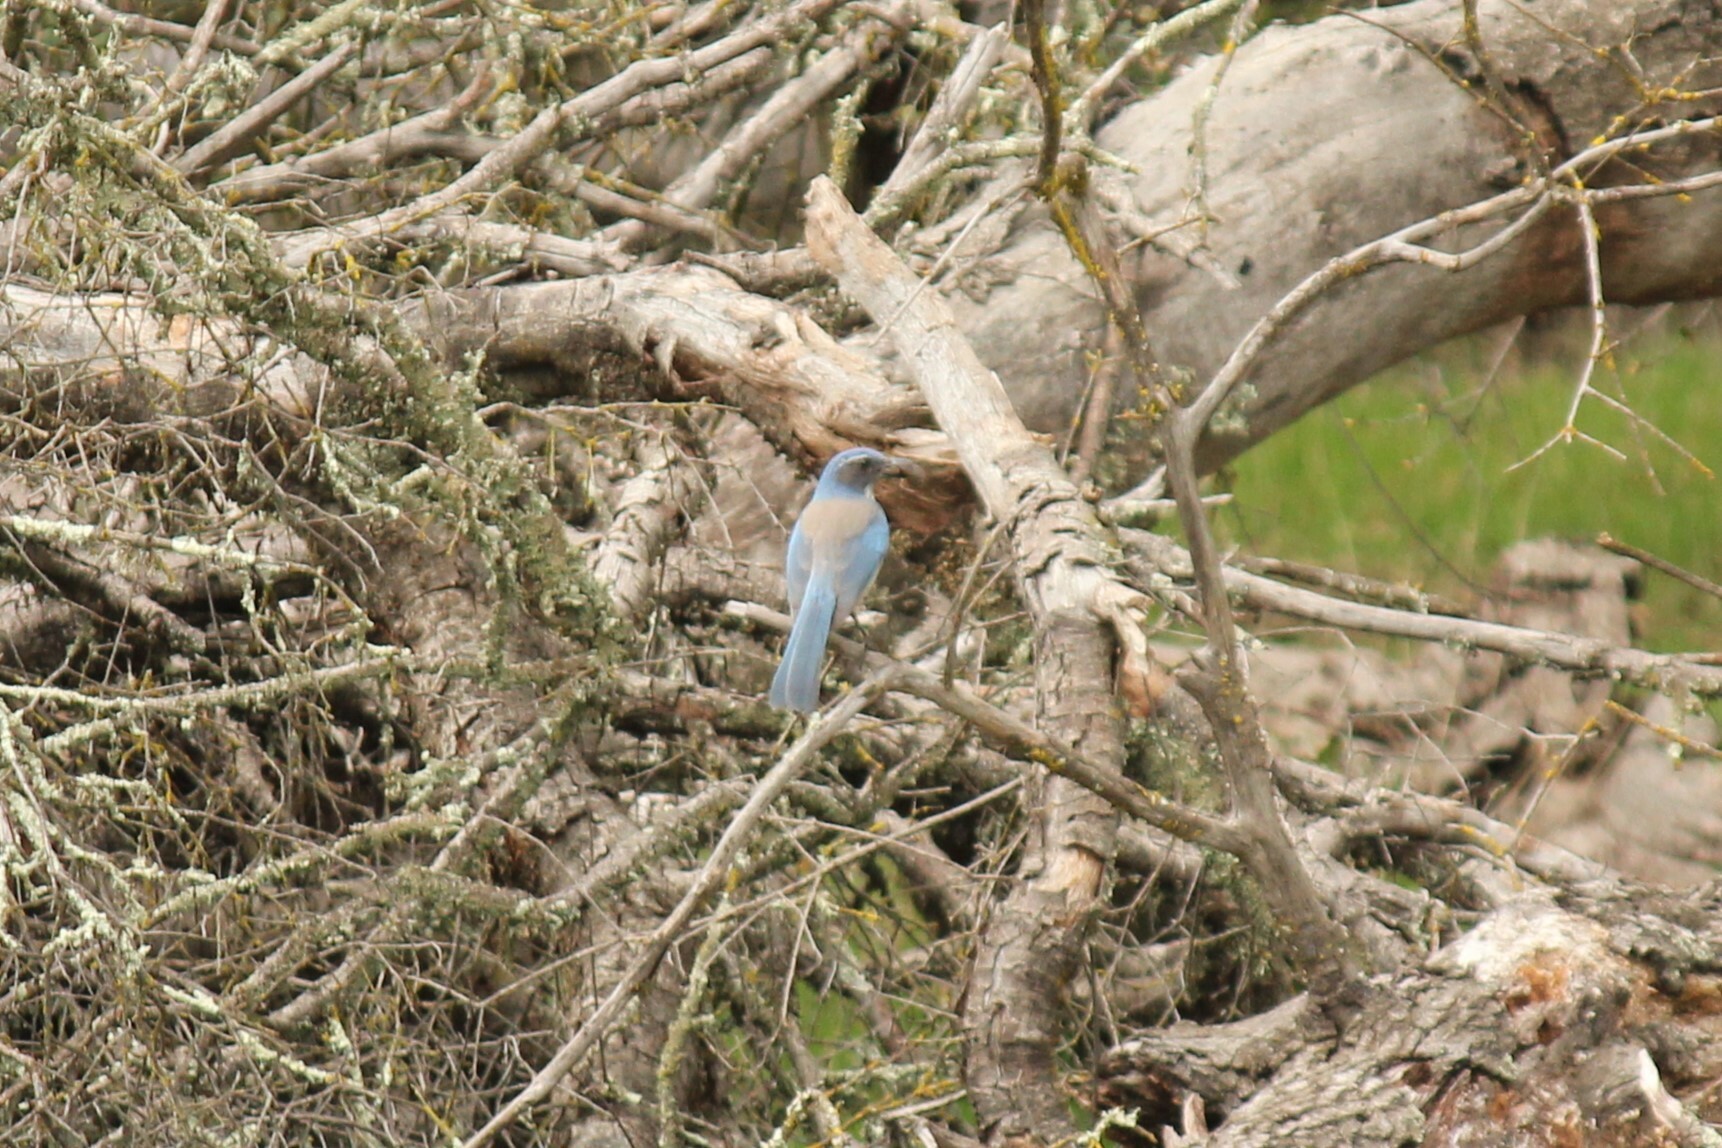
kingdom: Animalia
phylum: Chordata
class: Aves
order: Passeriformes
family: Corvidae
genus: Aphelocoma
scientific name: Aphelocoma californica
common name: California scrub-jay
